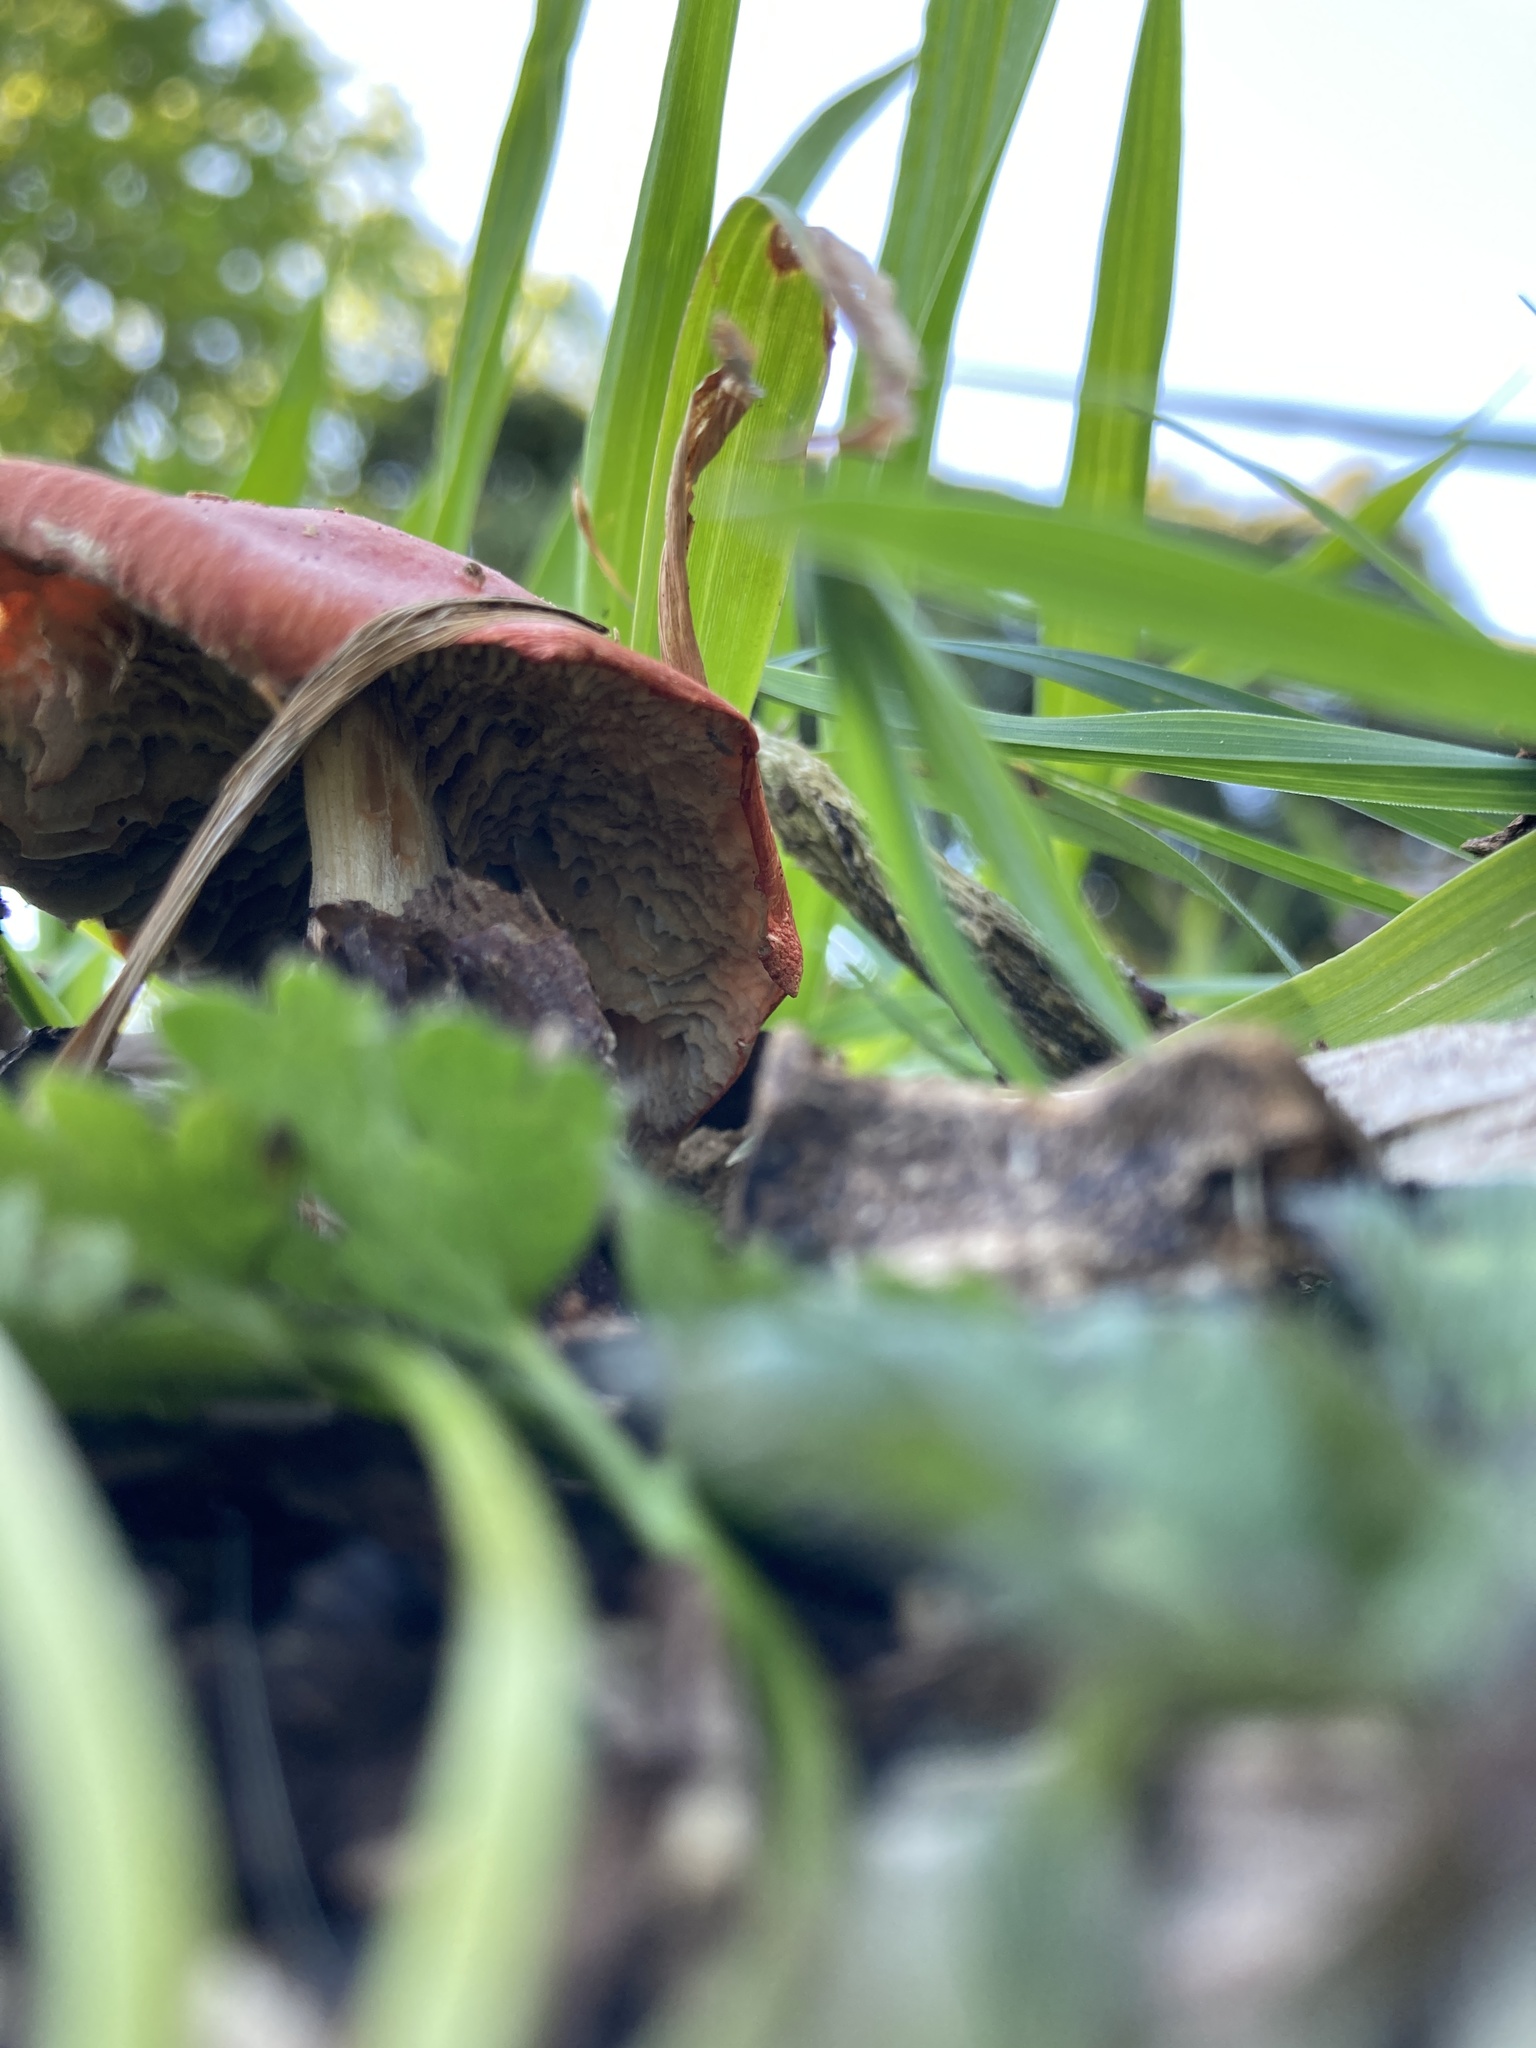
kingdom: Fungi
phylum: Basidiomycota
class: Agaricomycetes
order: Agaricales
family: Strophariaceae
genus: Leratiomyces
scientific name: Leratiomyces ceres
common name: Redlead roundhead
